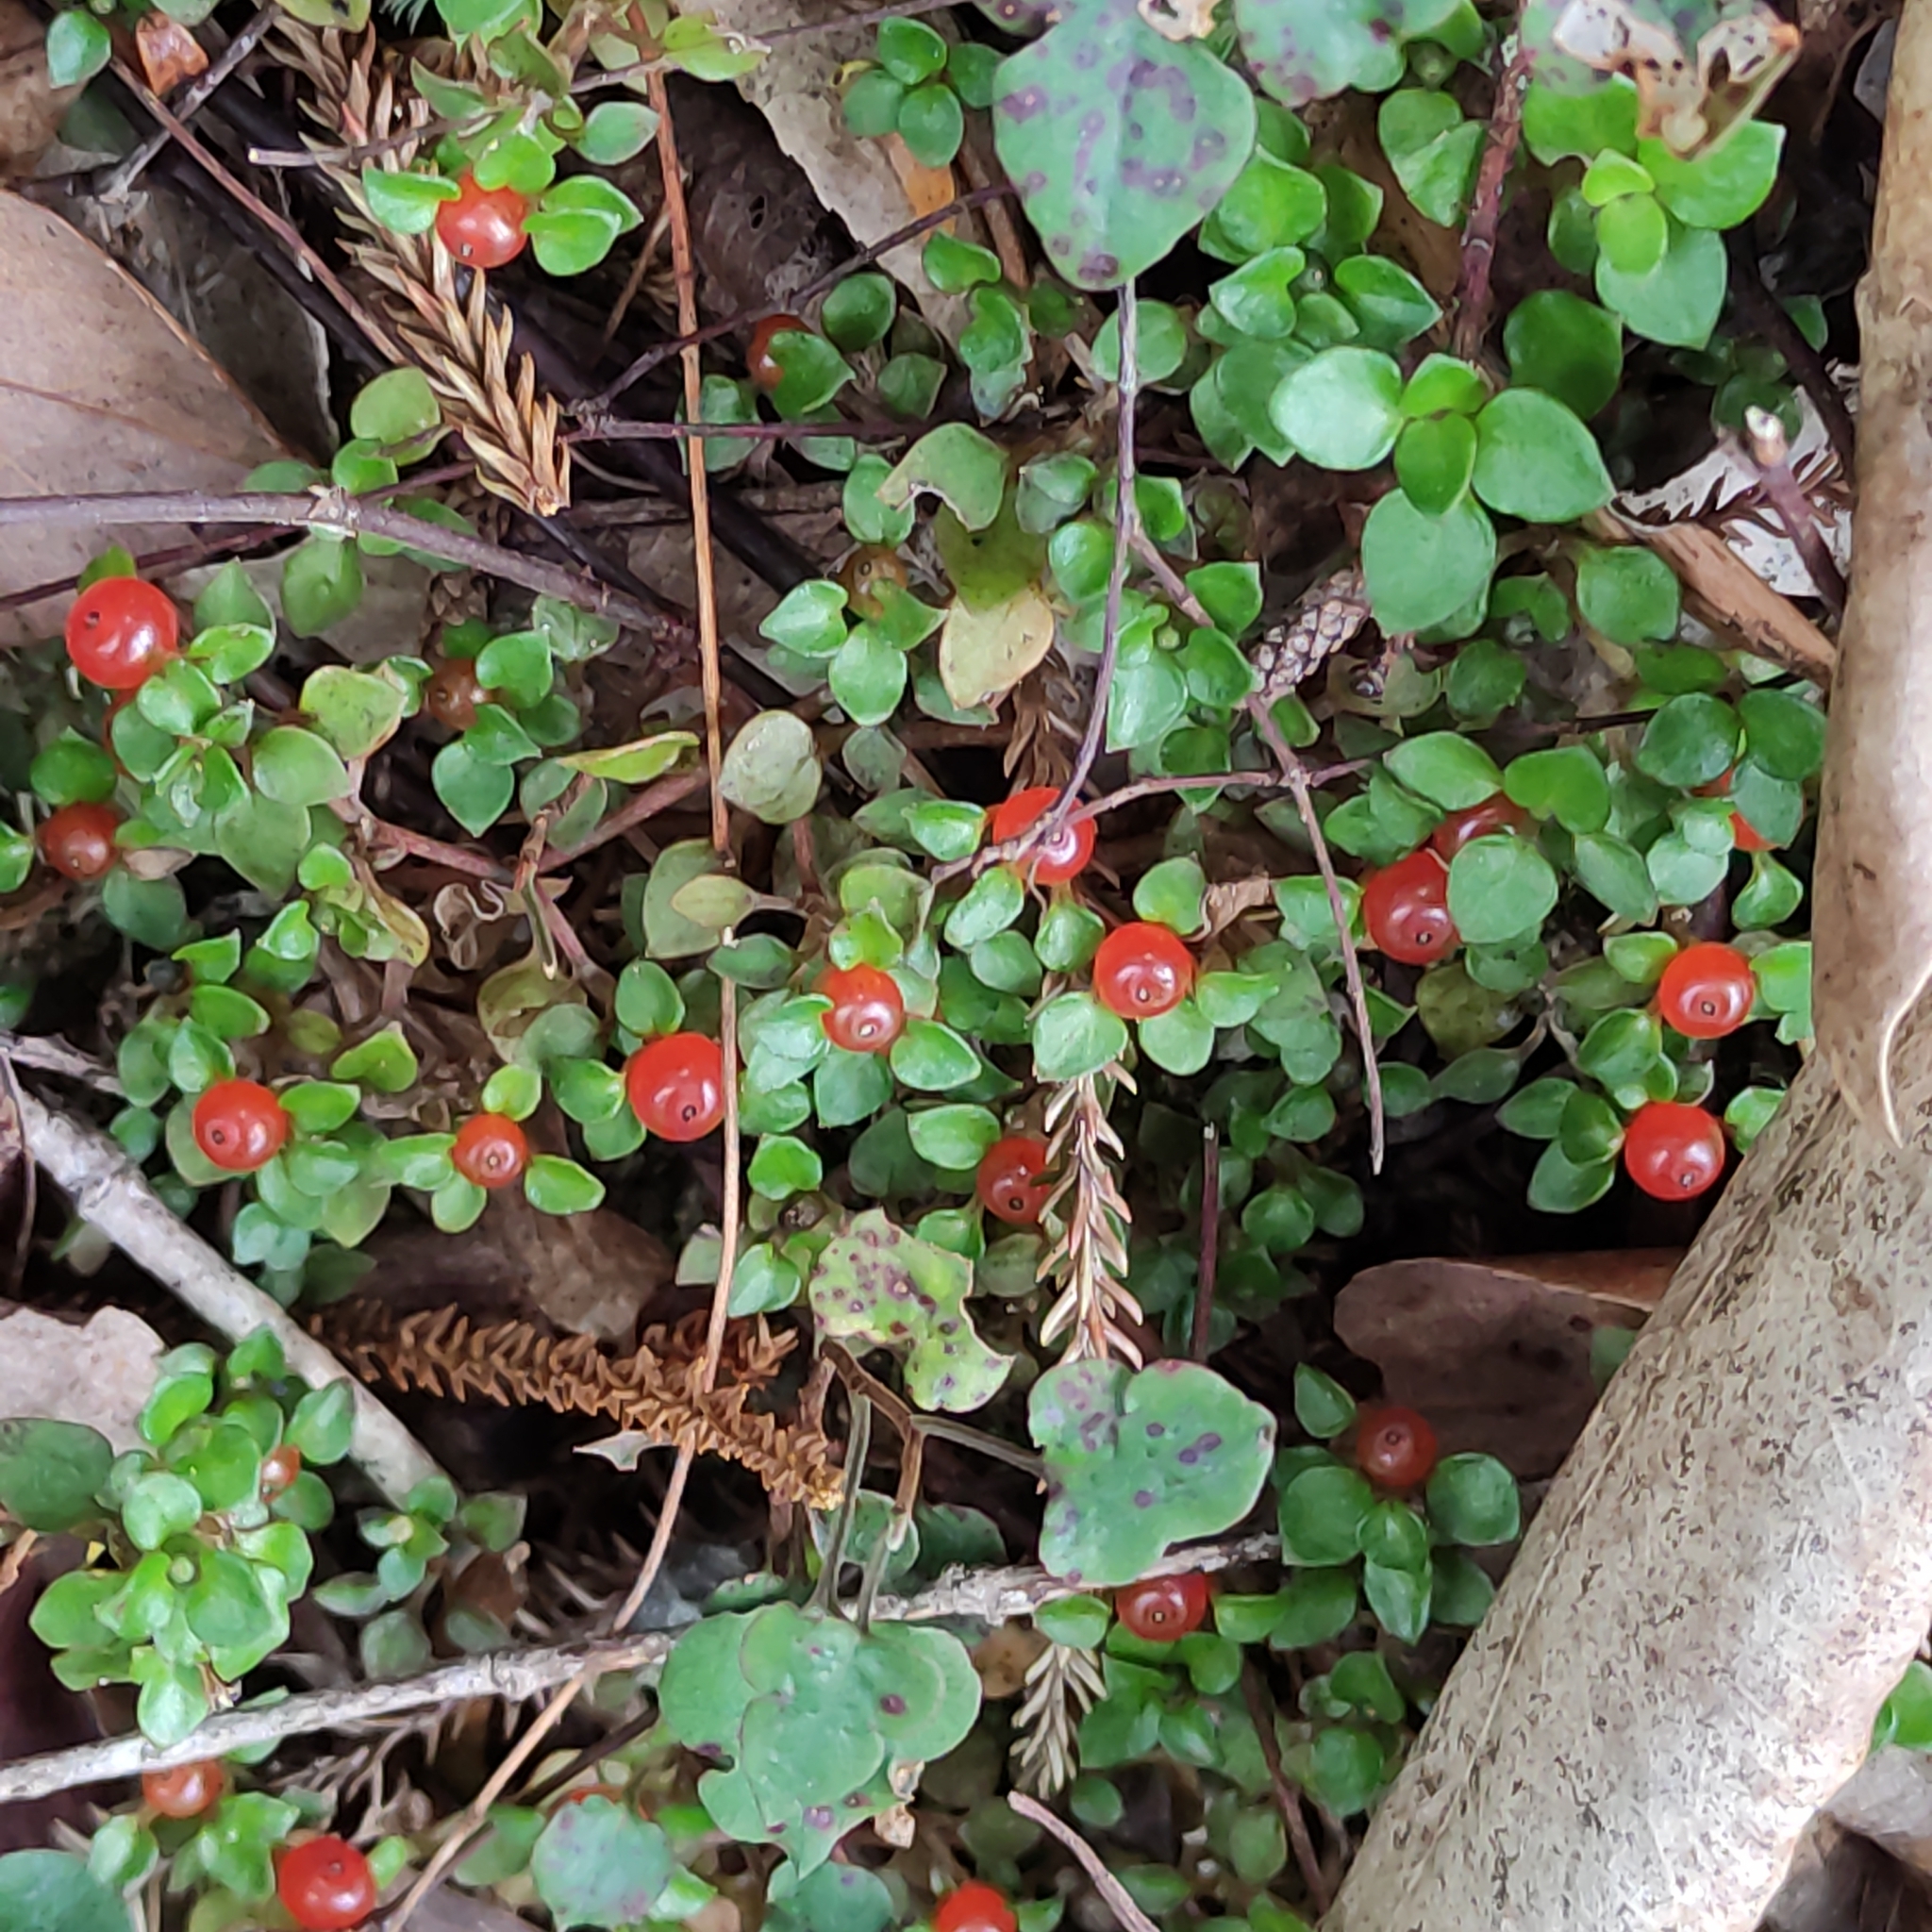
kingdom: Plantae
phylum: Tracheophyta
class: Magnoliopsida
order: Gentianales
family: Rubiaceae
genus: Nertera
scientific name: Nertera granadensis
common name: Beadplant
